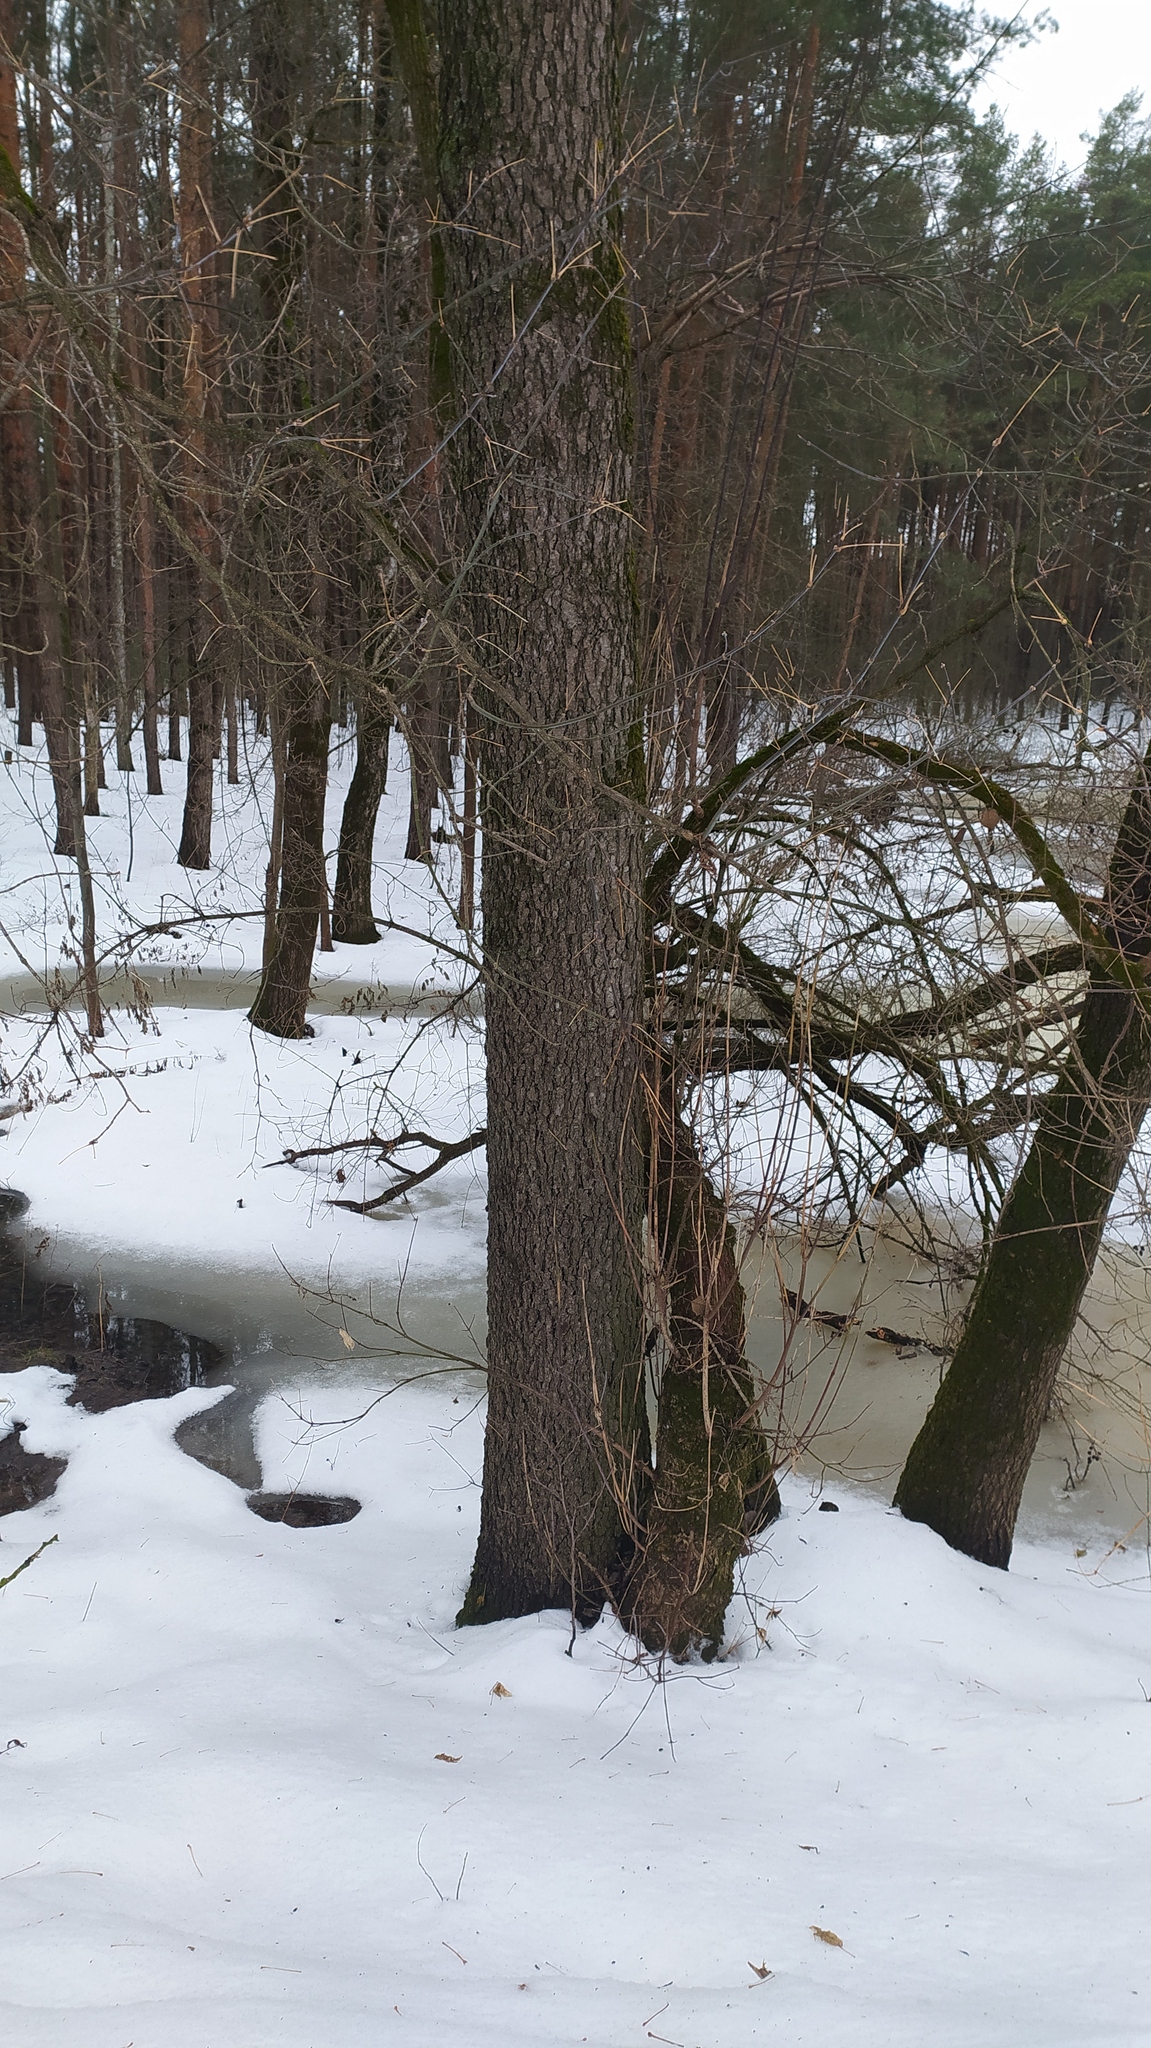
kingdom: Plantae
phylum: Tracheophyta
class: Magnoliopsida
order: Fagales
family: Betulaceae
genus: Alnus
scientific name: Alnus glutinosa
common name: Black alder
